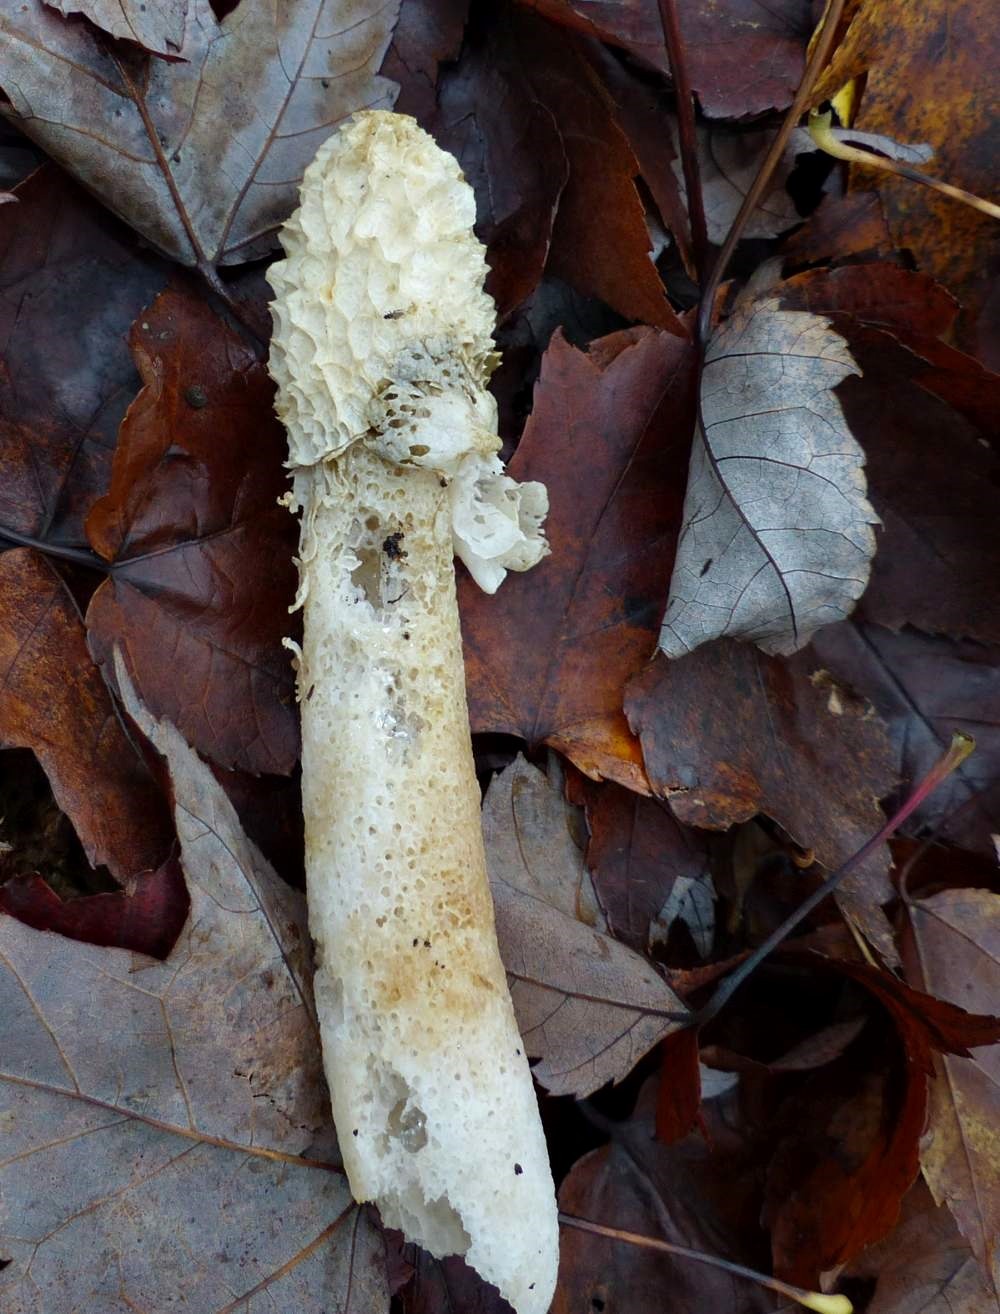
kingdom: Fungi
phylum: Basidiomycota
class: Agaricomycetes
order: Phallales
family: Phallaceae
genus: Phallus
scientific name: Phallus indusiatus
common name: Bridal veil stinkhorn
